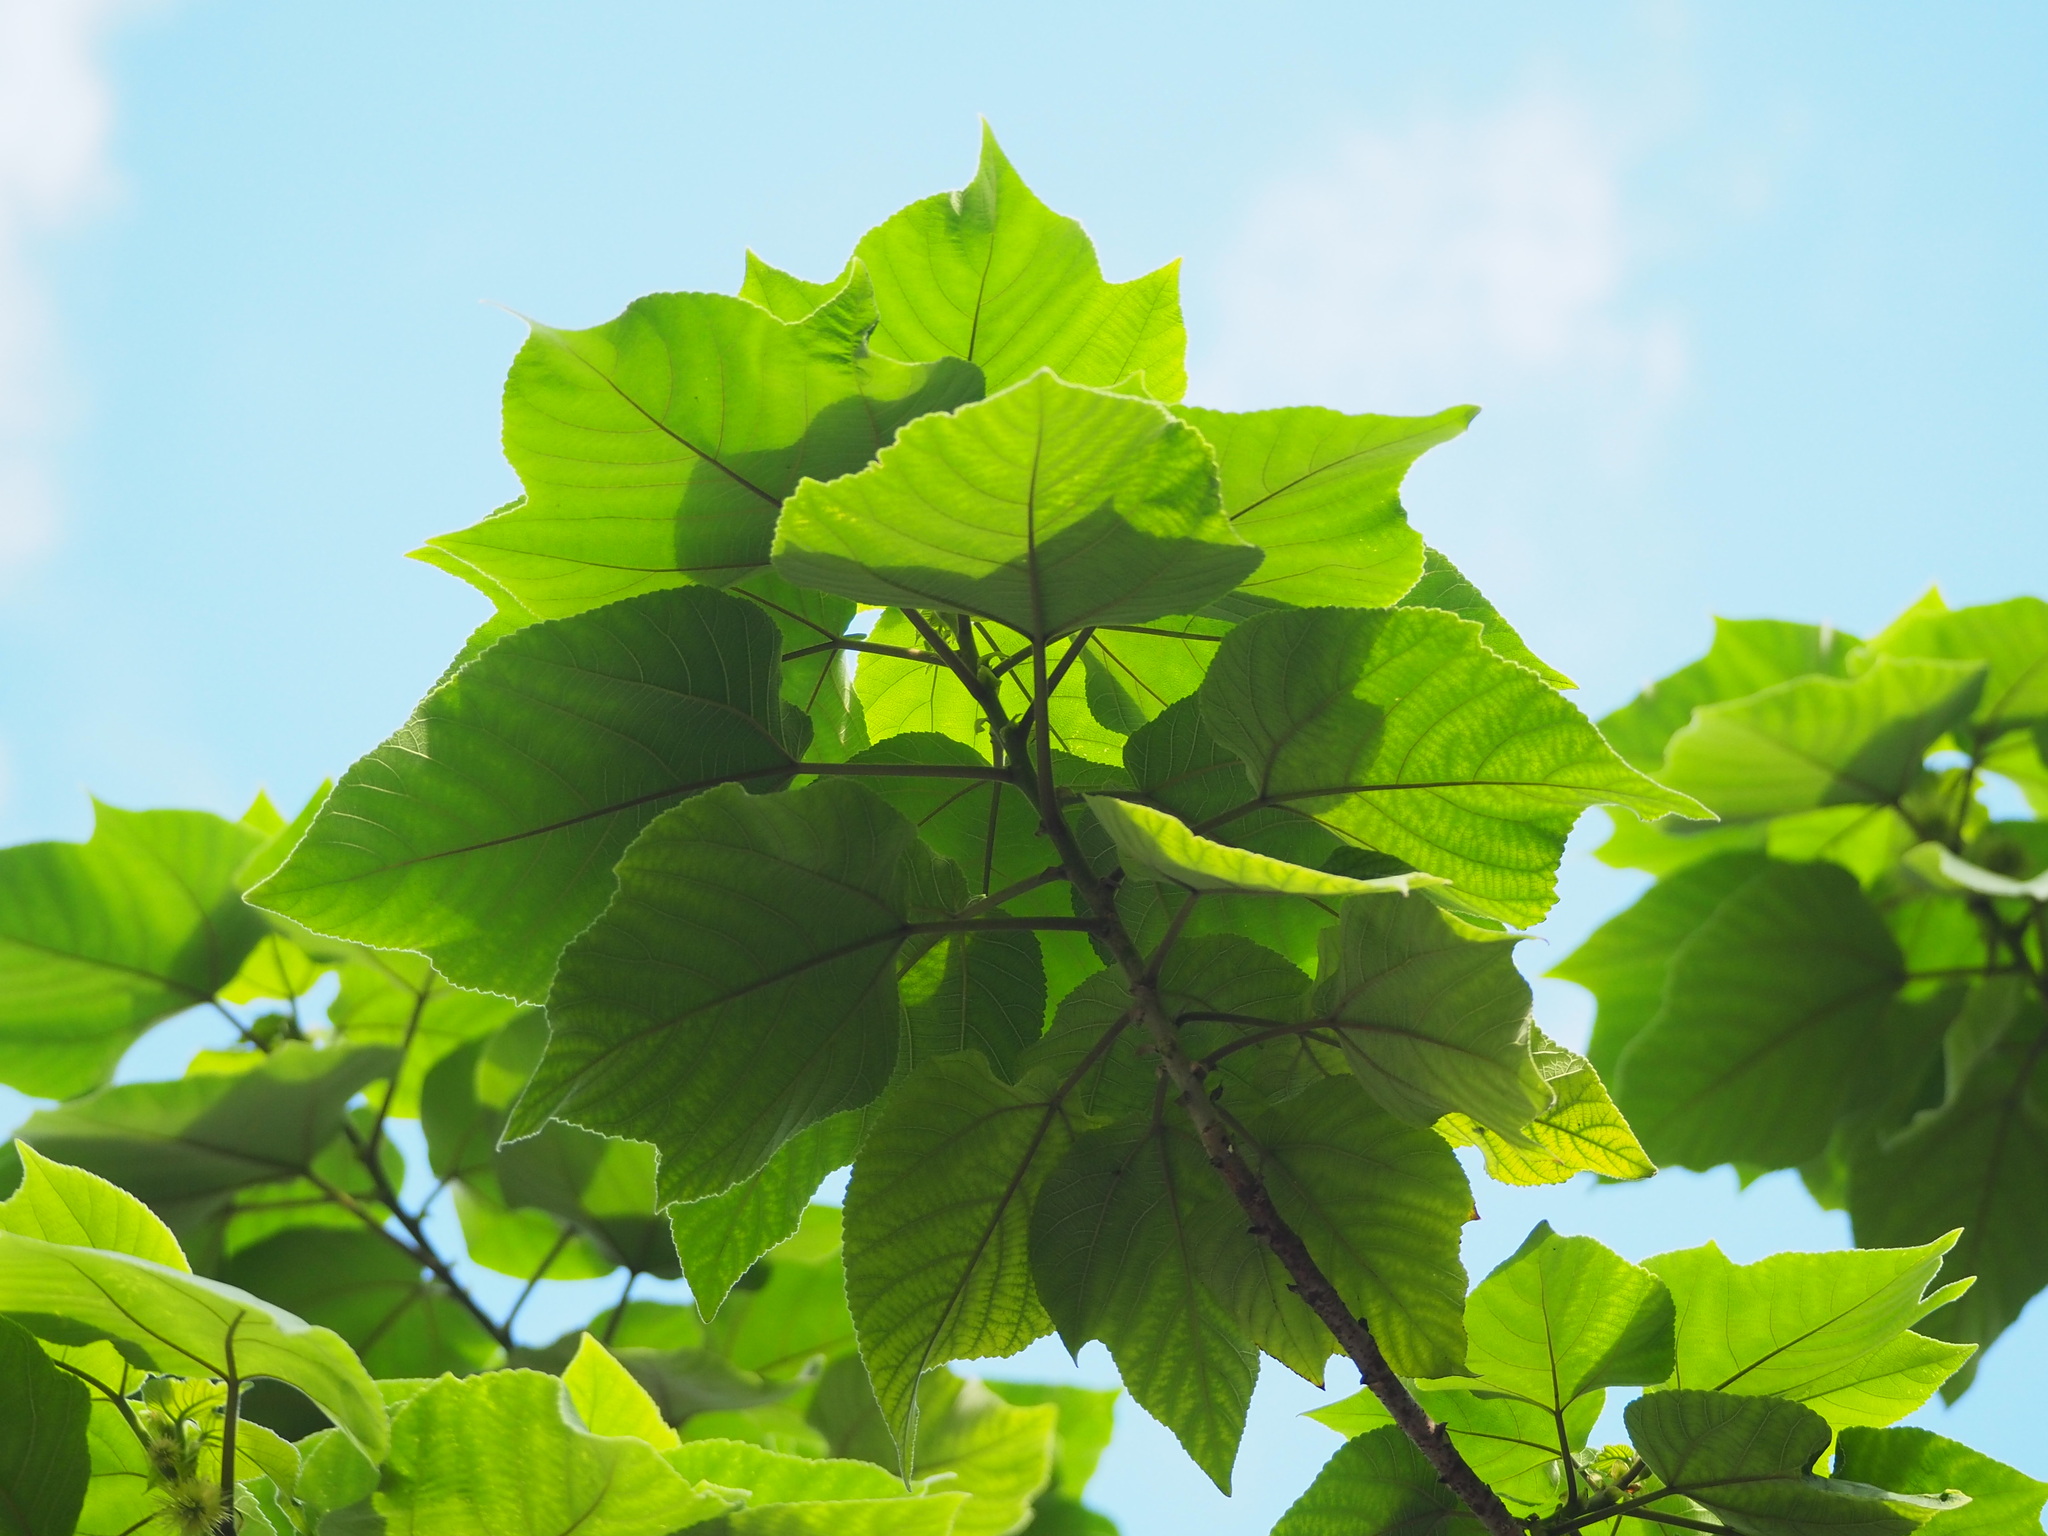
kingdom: Plantae
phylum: Tracheophyta
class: Magnoliopsida
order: Rosales
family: Moraceae
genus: Broussonetia
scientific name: Broussonetia papyrifera
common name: Paper mulberry
